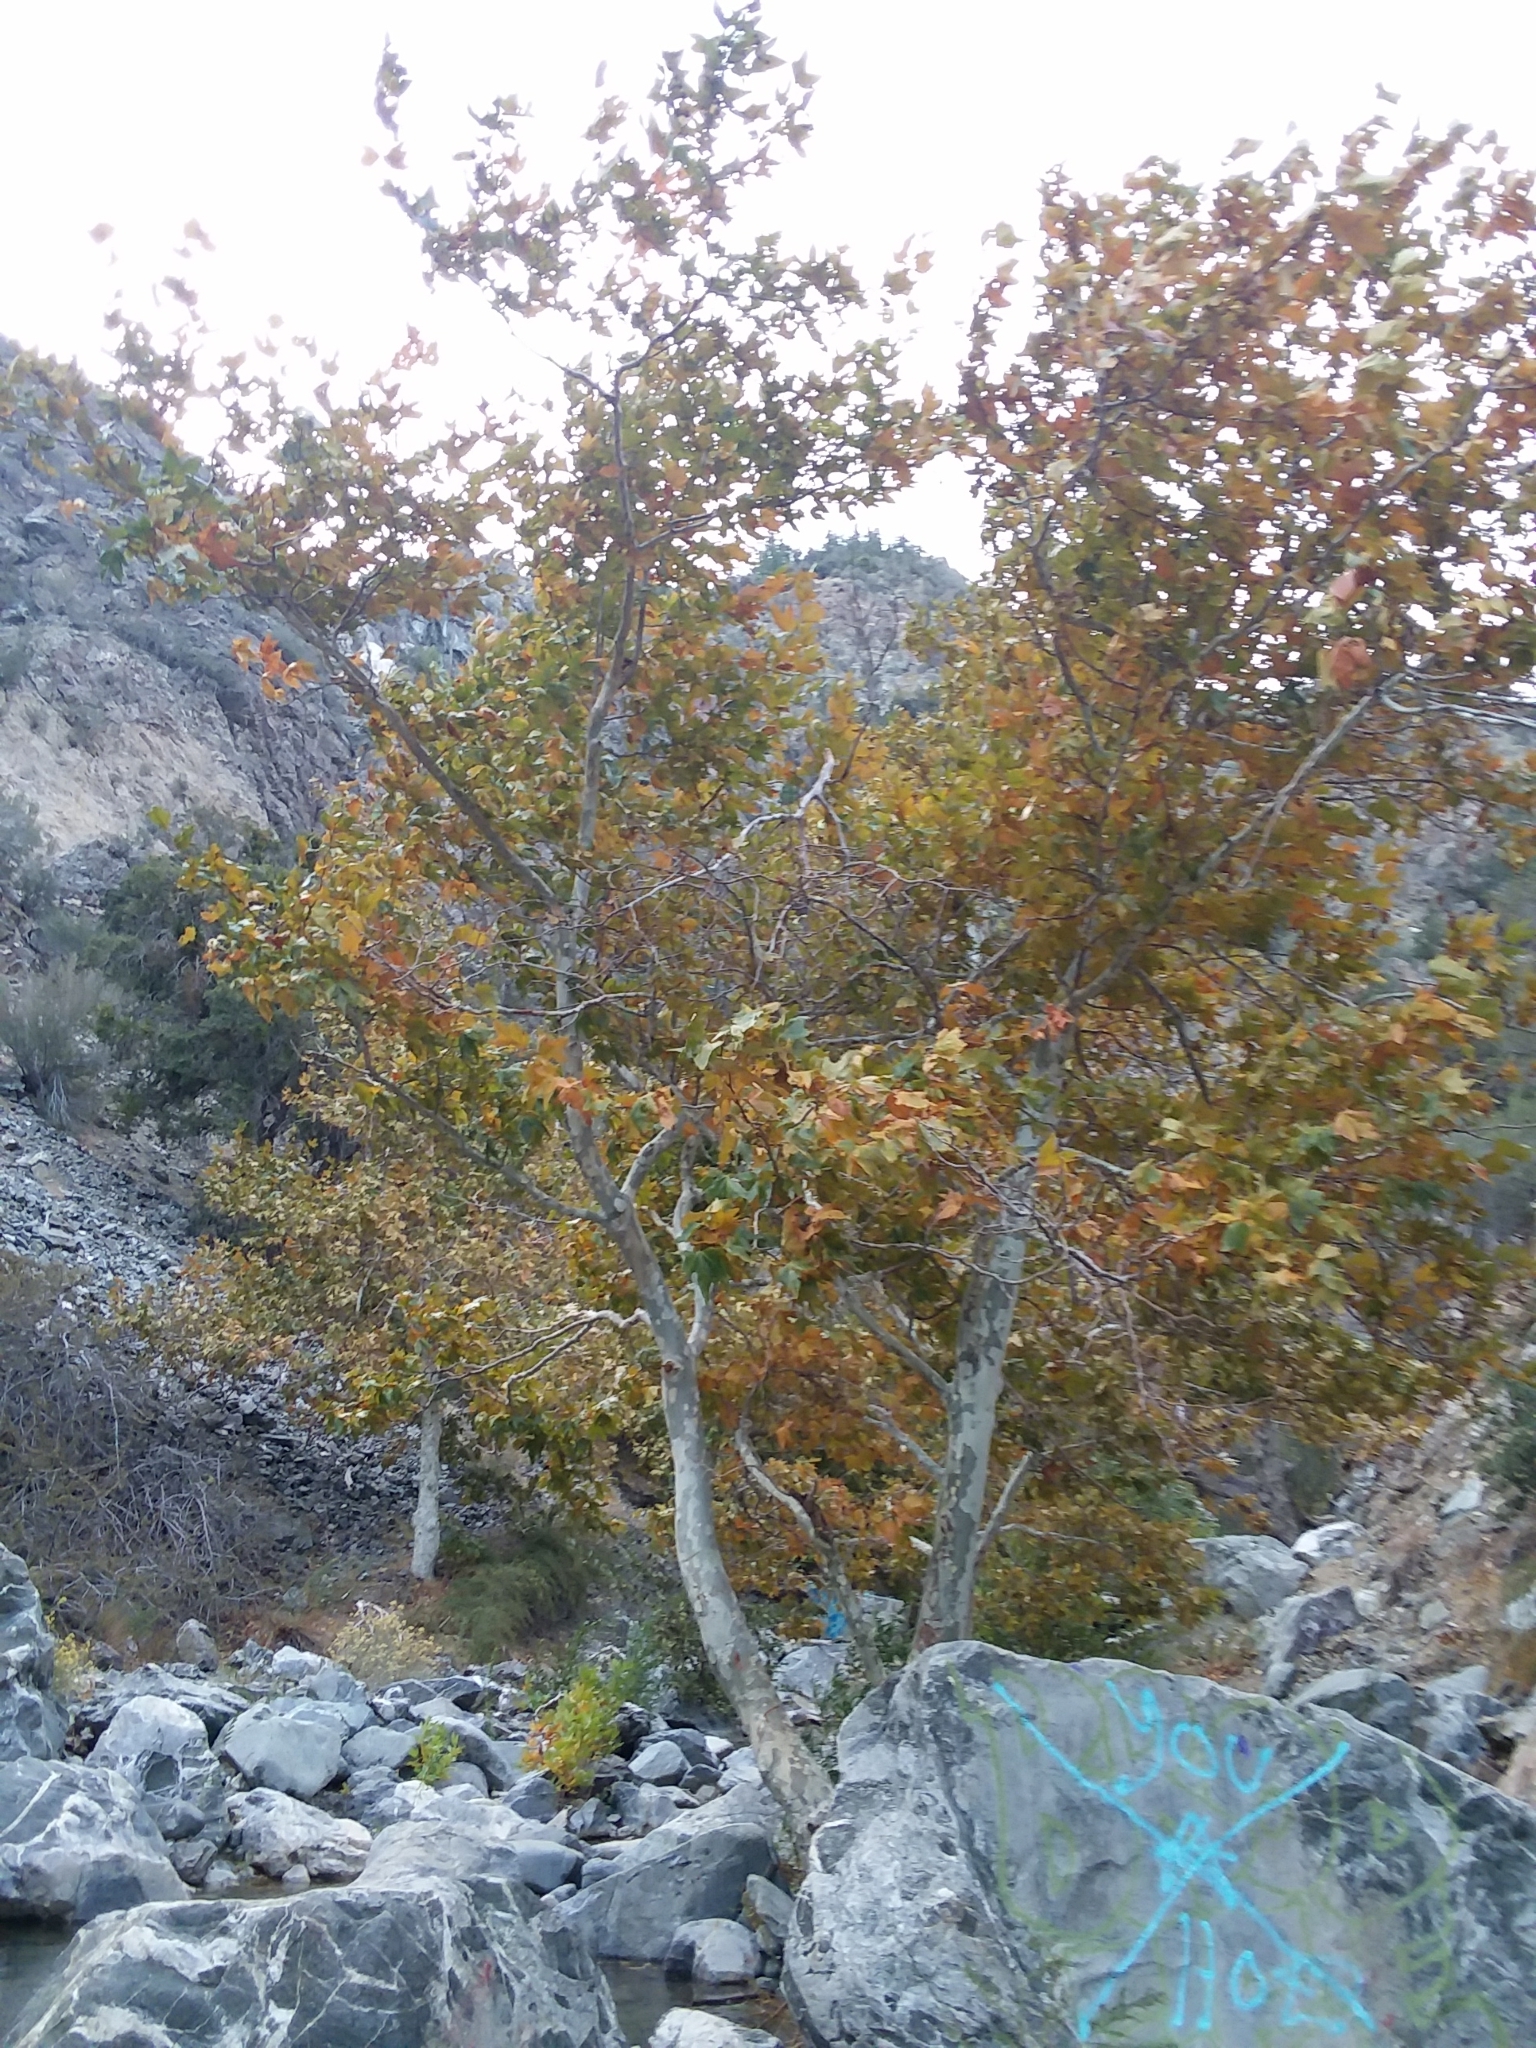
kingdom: Plantae
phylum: Tracheophyta
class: Magnoliopsida
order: Proteales
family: Platanaceae
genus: Platanus
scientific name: Platanus racemosa
